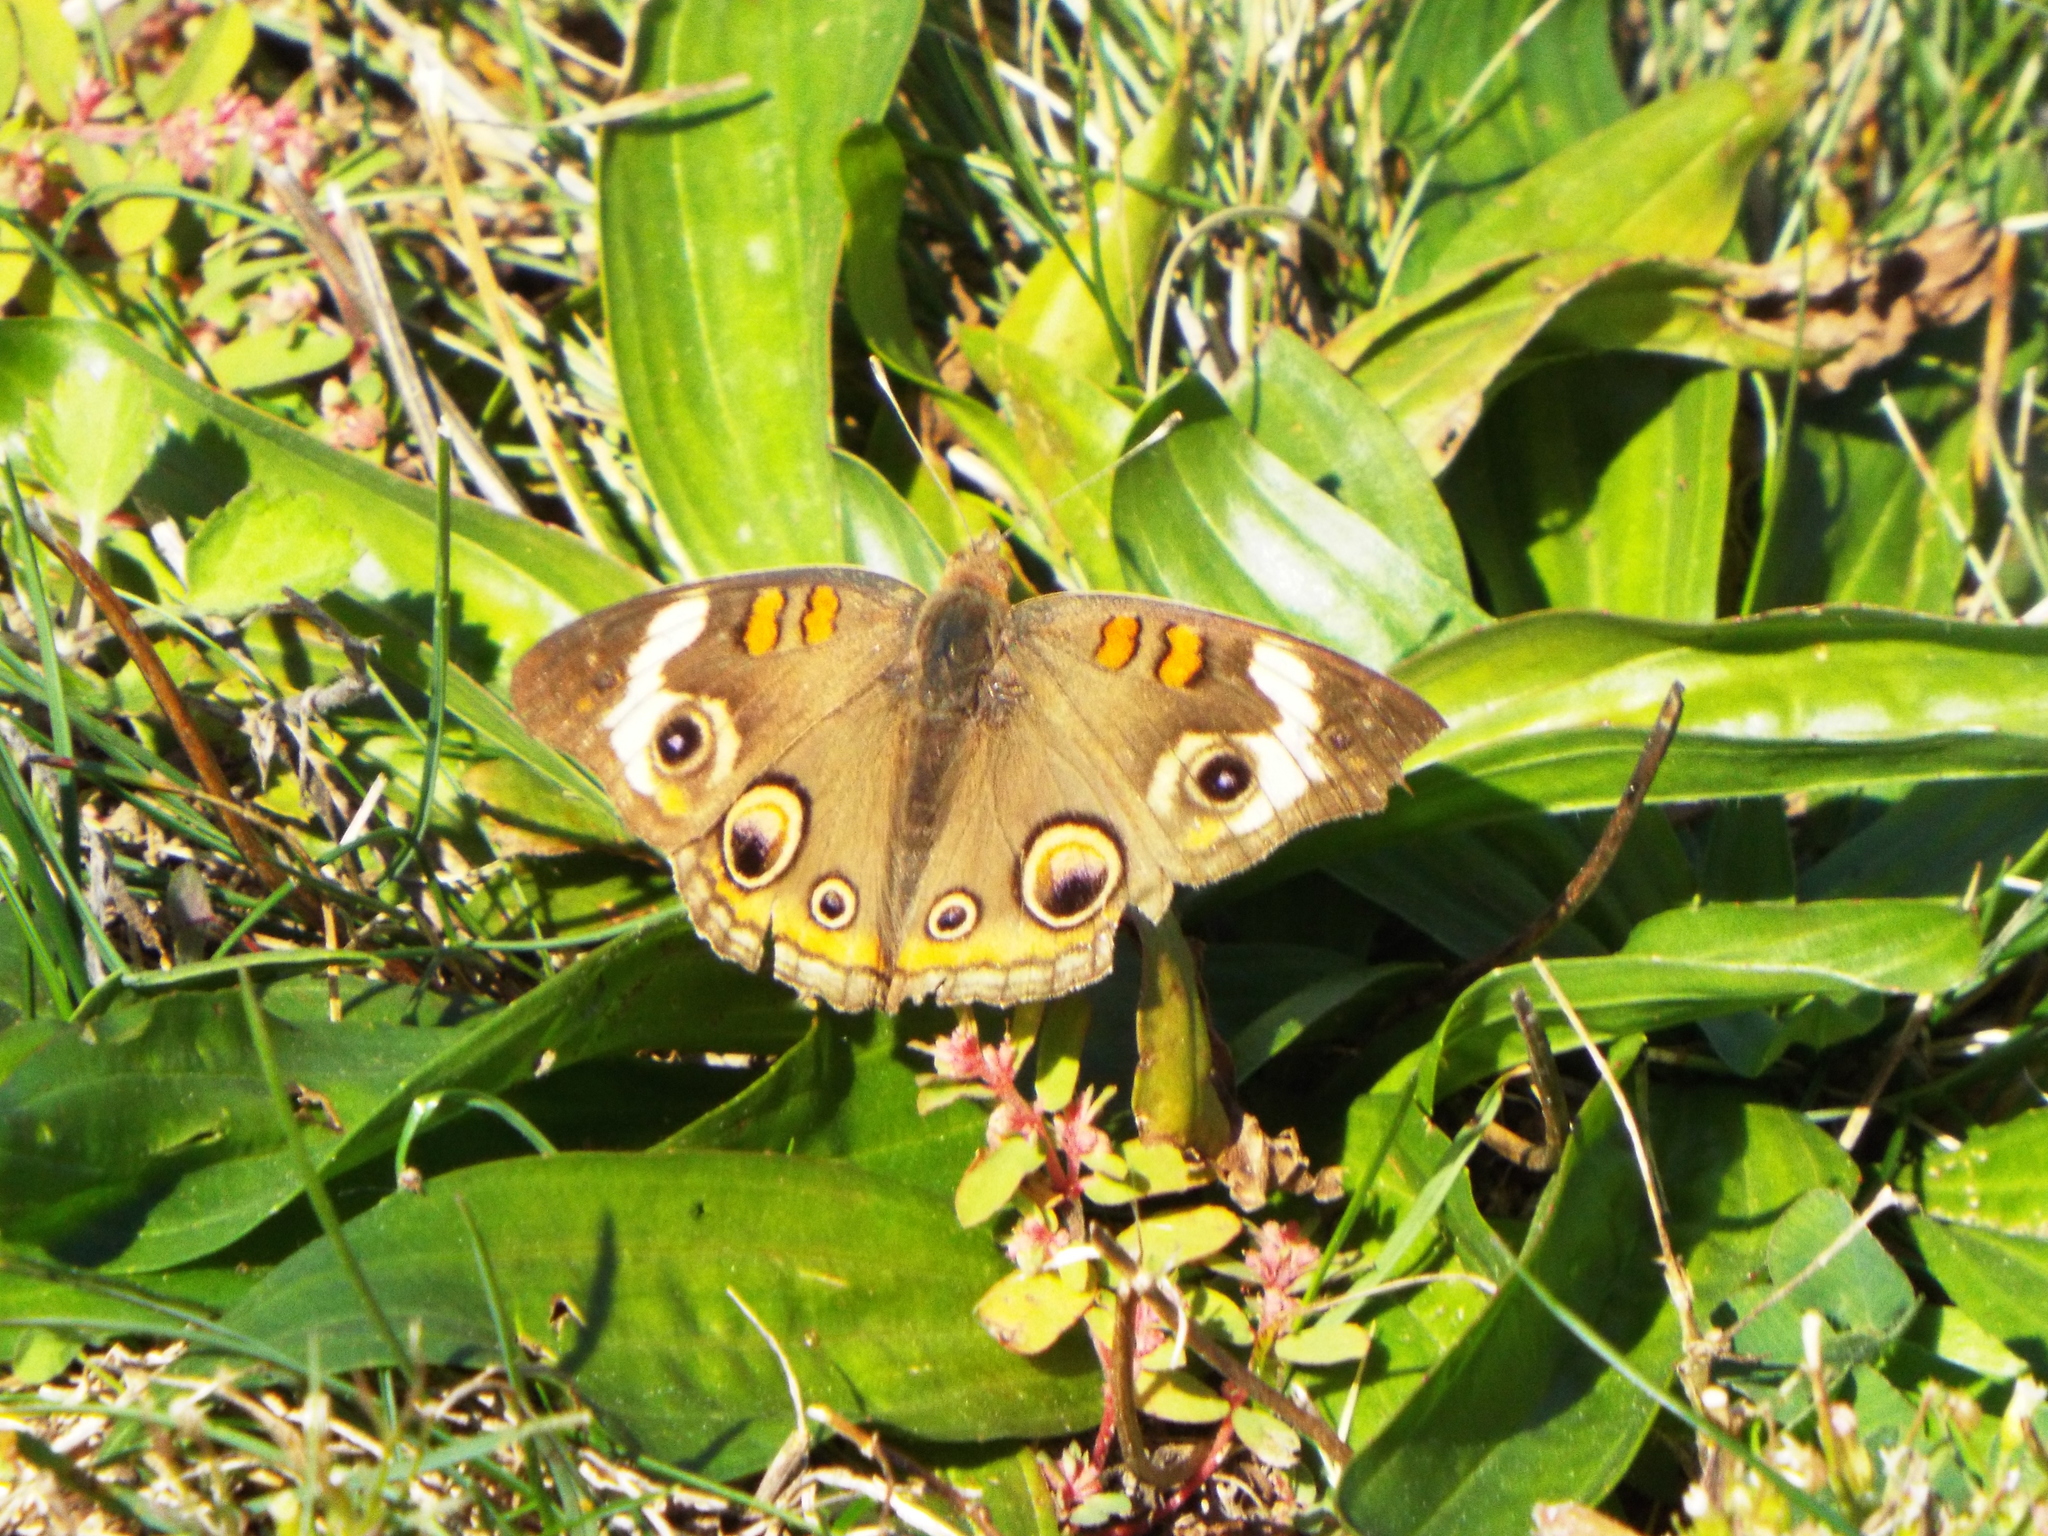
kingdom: Animalia
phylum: Arthropoda
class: Insecta
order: Lepidoptera
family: Nymphalidae
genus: Junonia
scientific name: Junonia coenia
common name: Common buckeye
